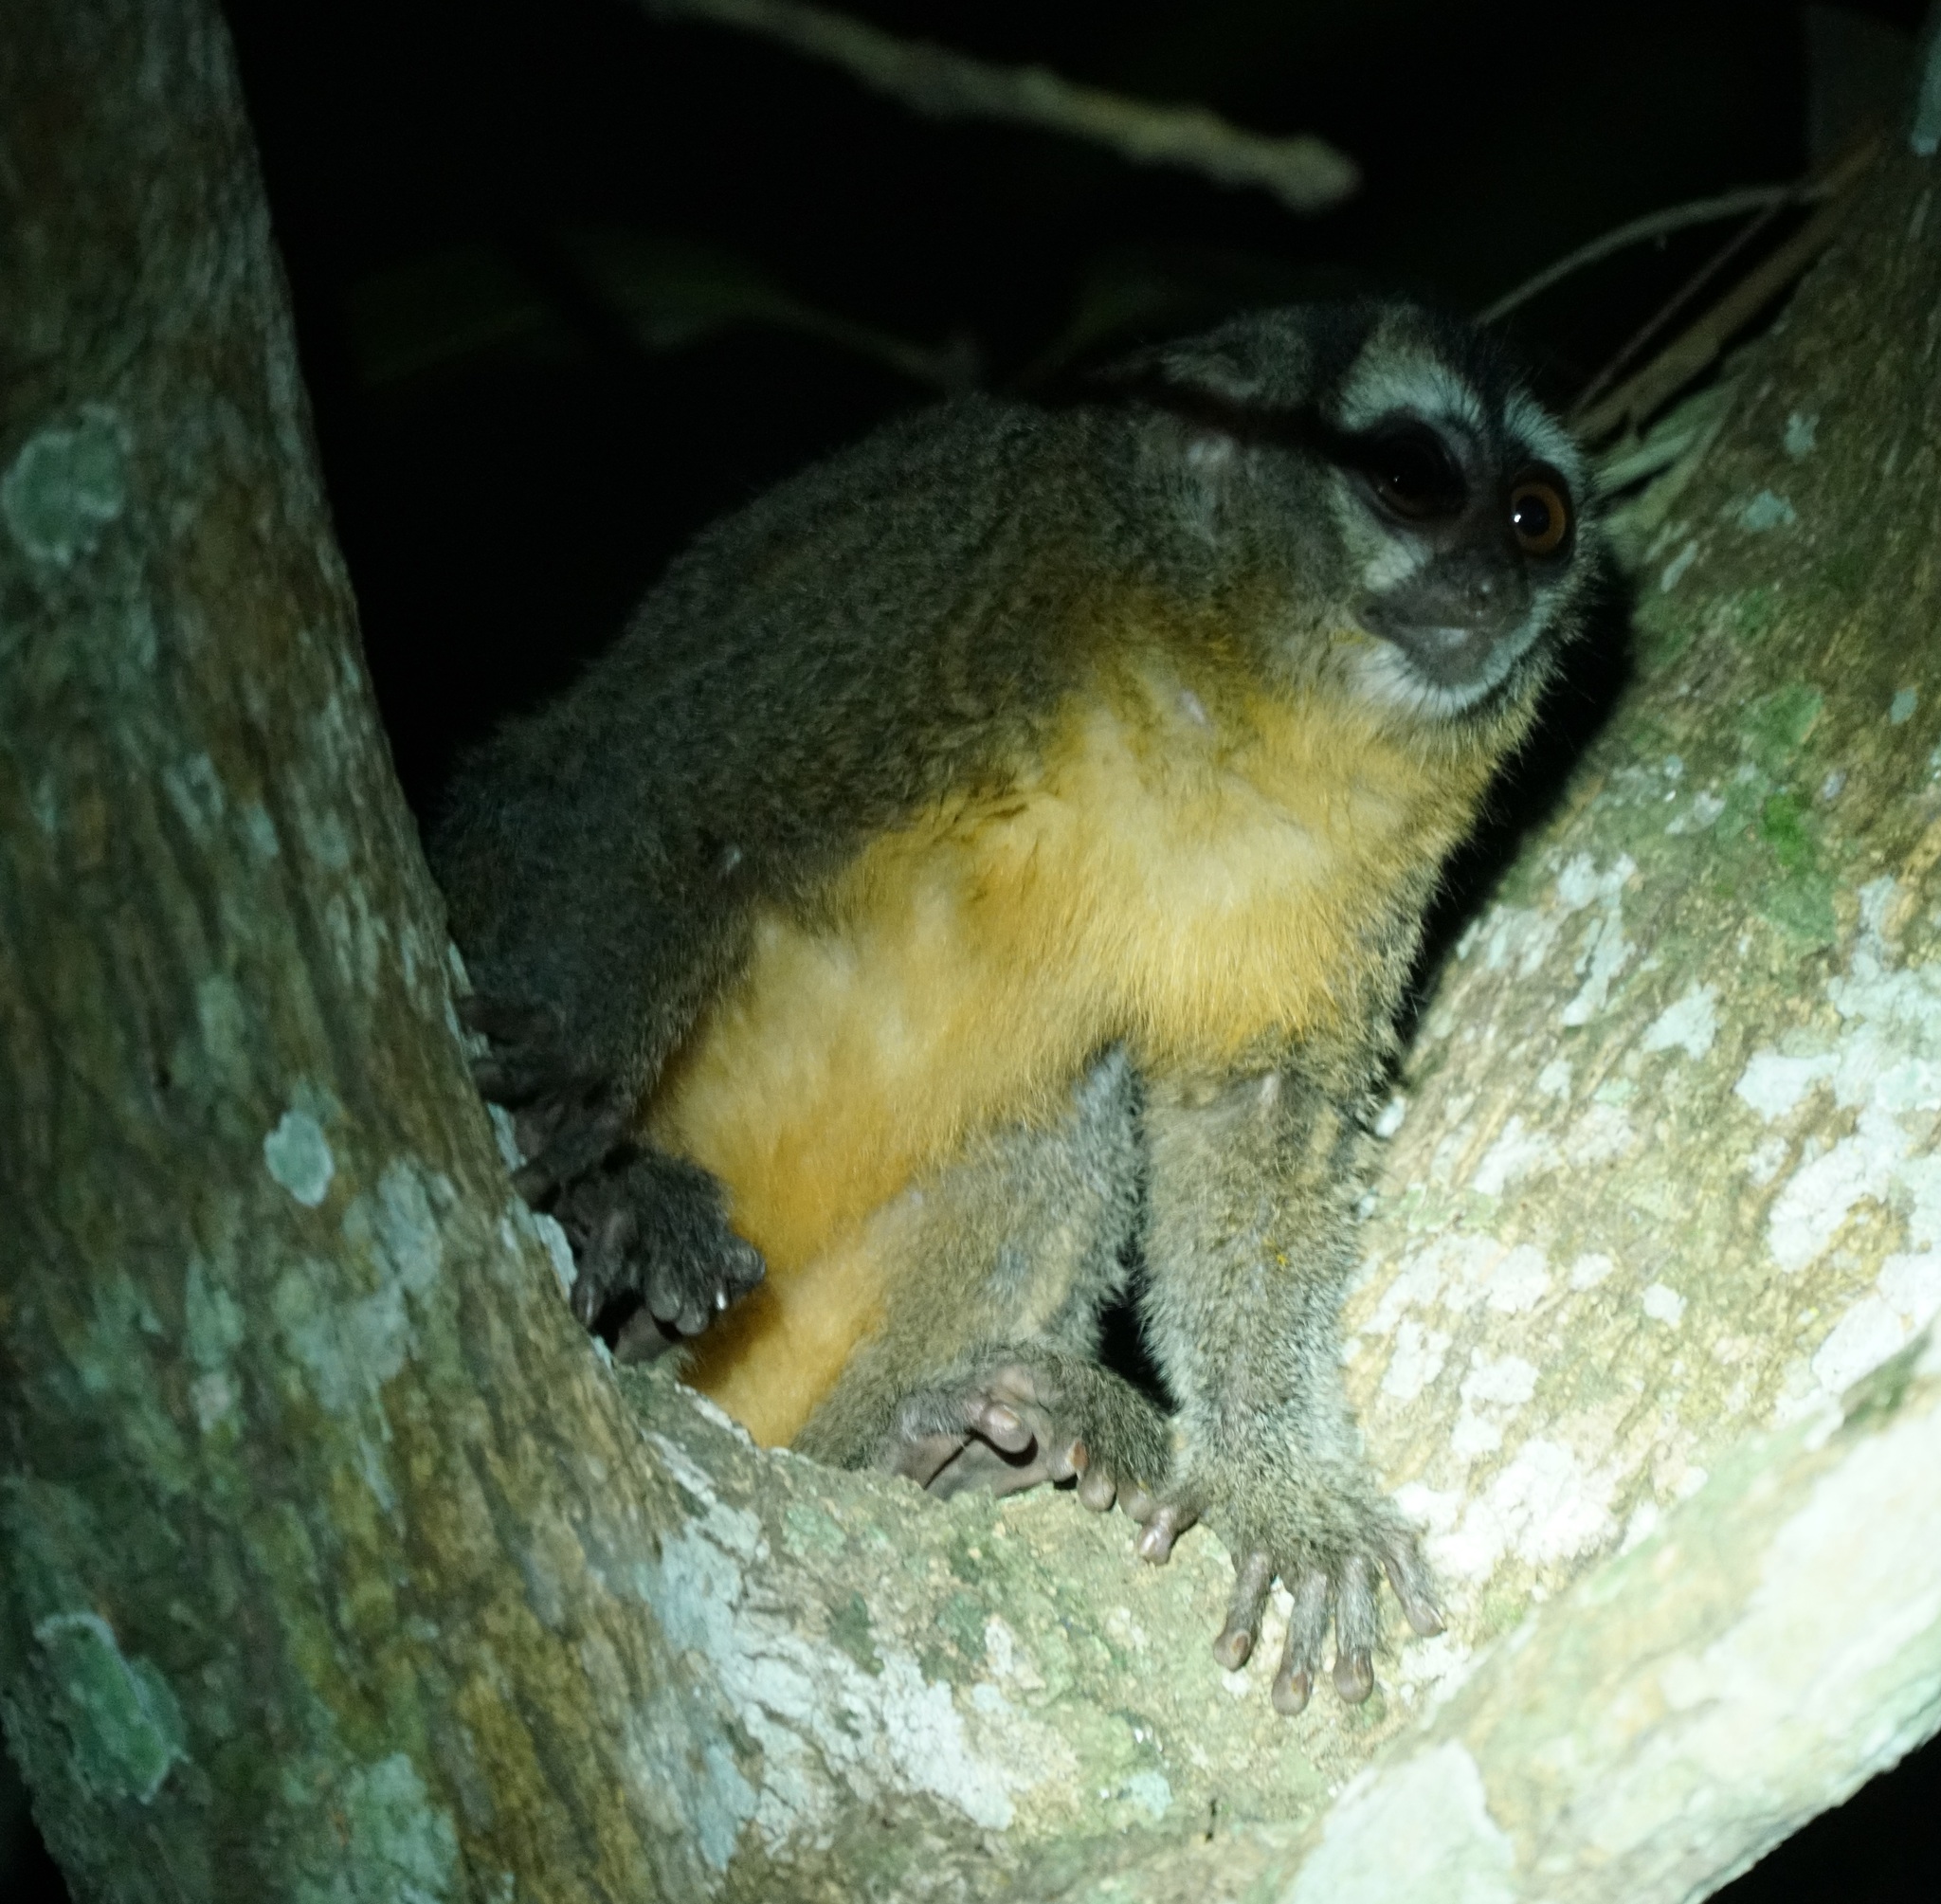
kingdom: Animalia
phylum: Chordata
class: Mammalia
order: Primates
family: Aotidae
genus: Aotus
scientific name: Aotus azarae
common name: Azara's night monkey
